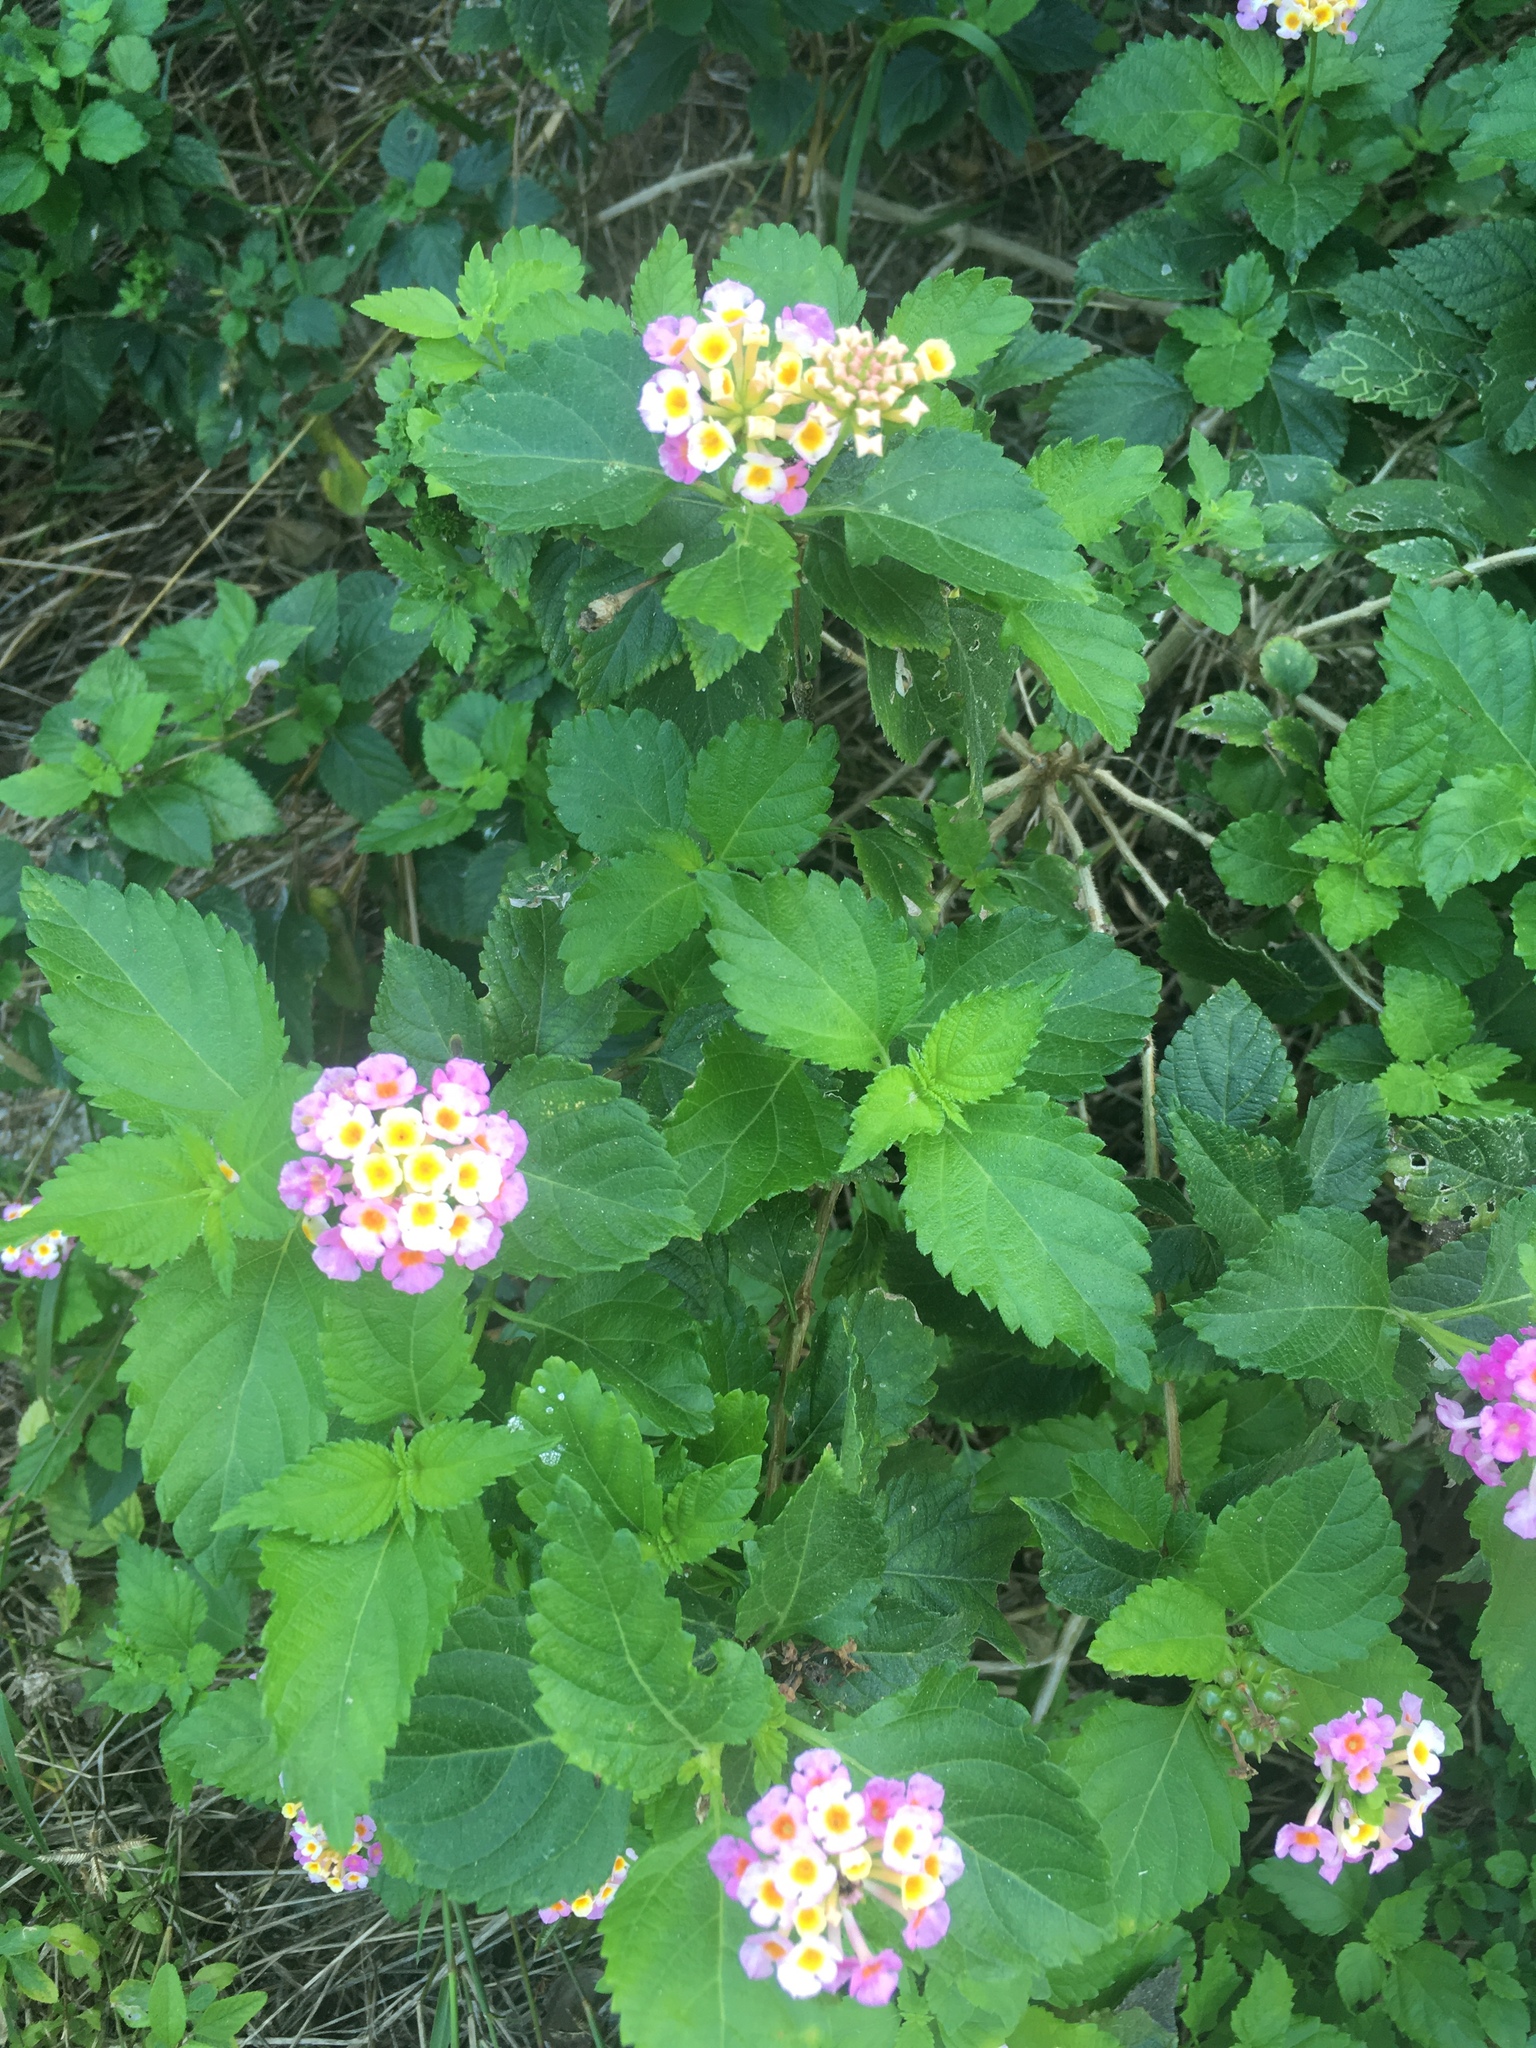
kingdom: Plantae
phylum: Tracheophyta
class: Magnoliopsida
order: Lamiales
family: Verbenaceae
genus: Lantana
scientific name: Lantana camara
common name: Lantana
